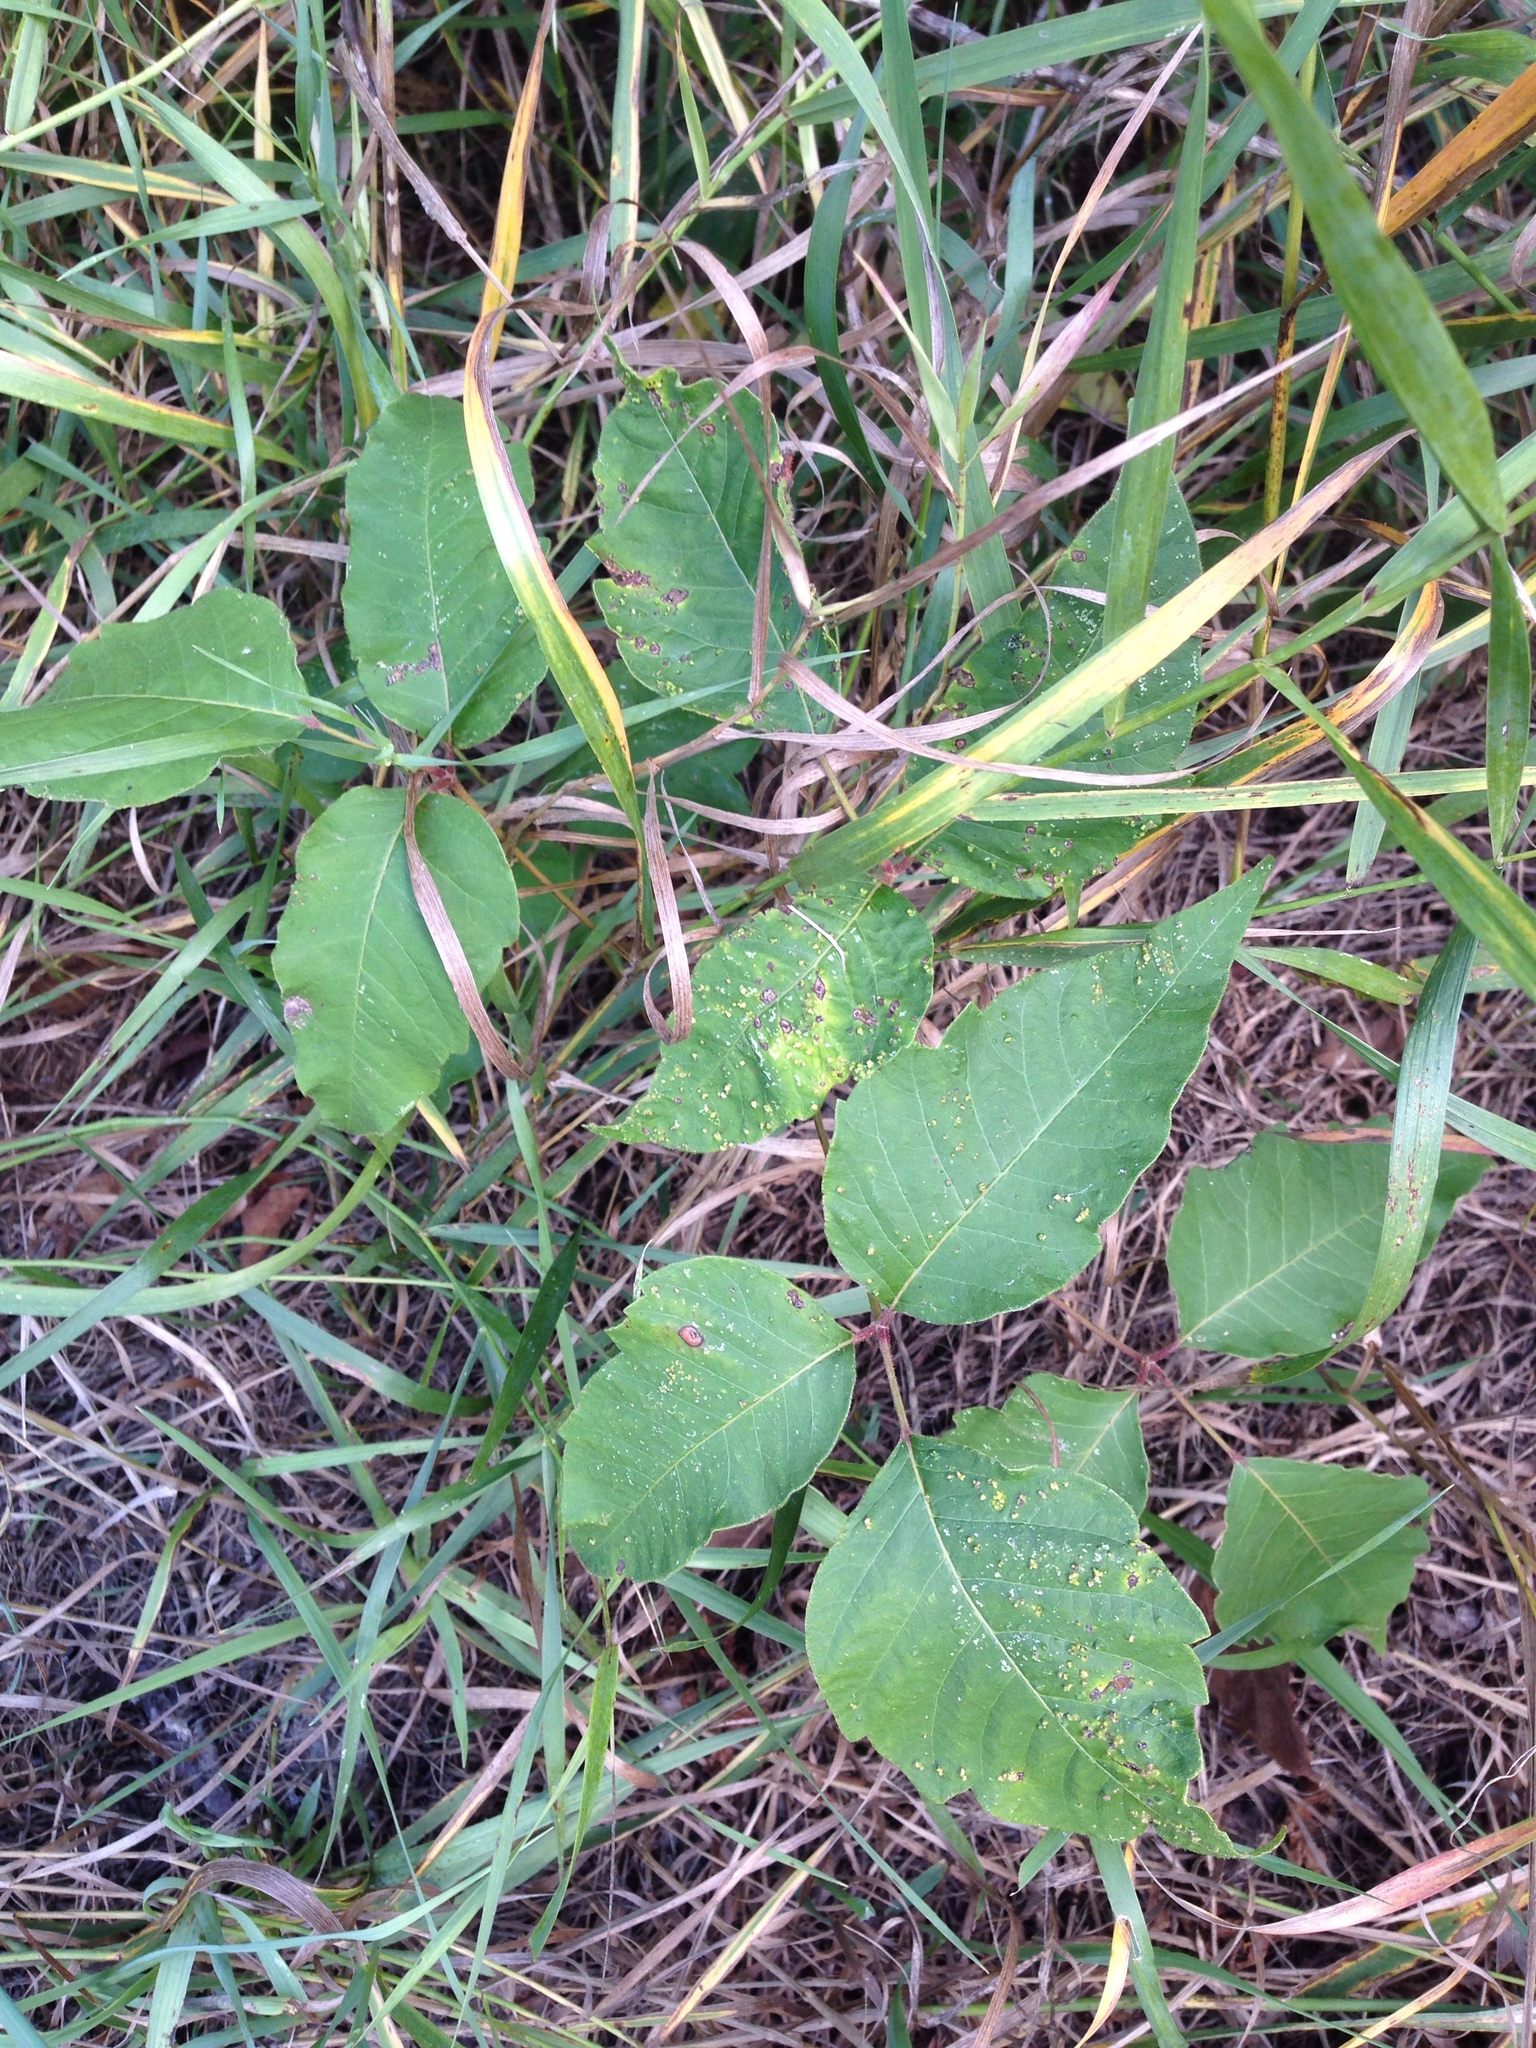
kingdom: Plantae
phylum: Tracheophyta
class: Magnoliopsida
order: Sapindales
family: Anacardiaceae
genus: Toxicodendron
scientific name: Toxicodendron radicans
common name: Poison ivy
